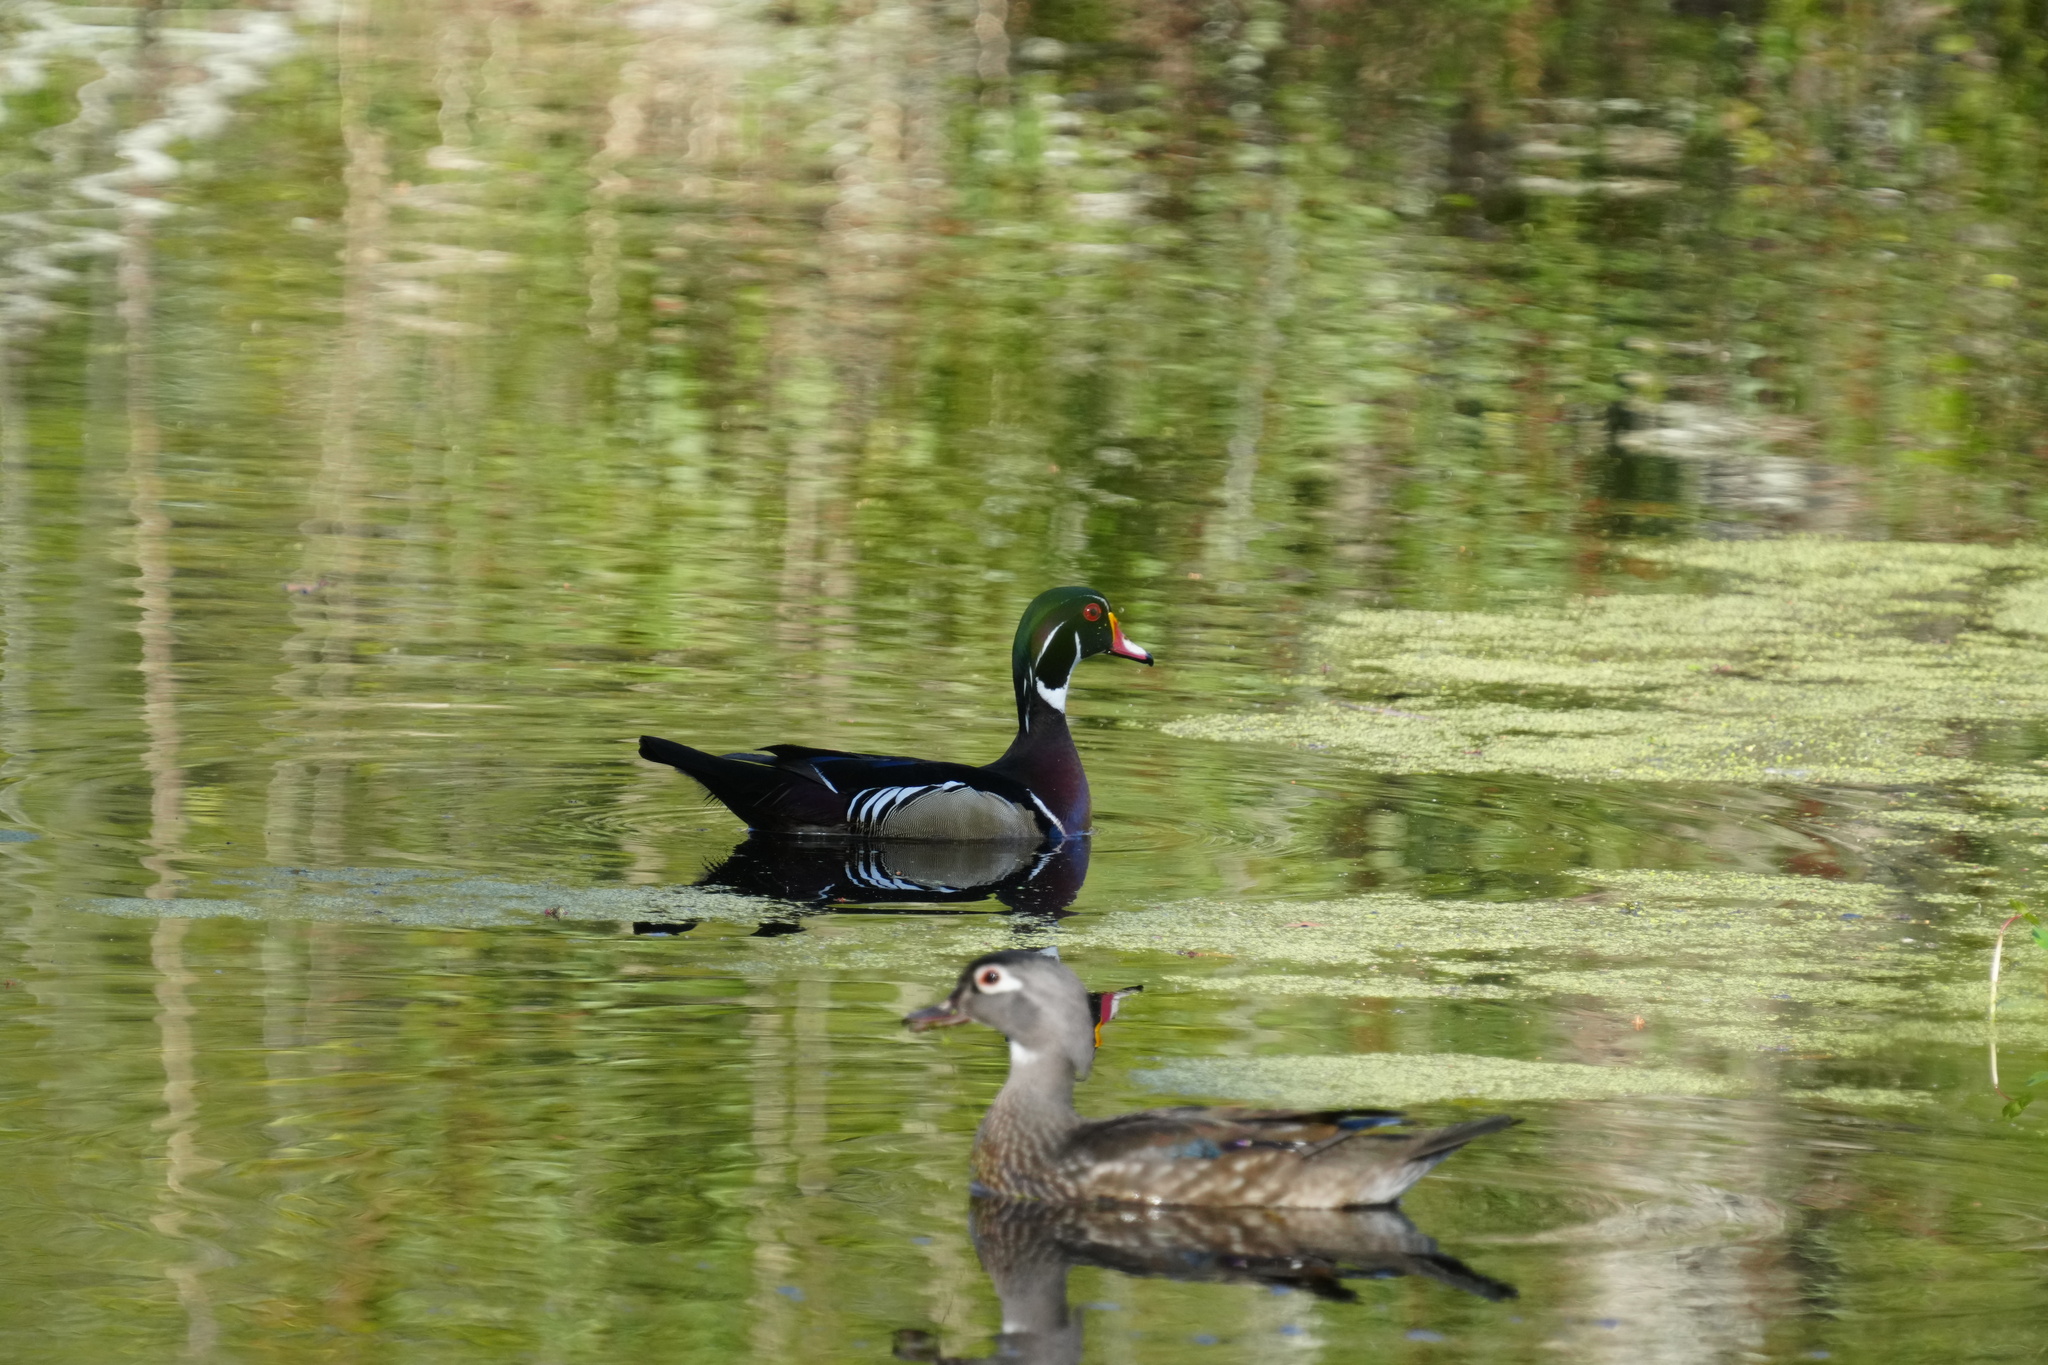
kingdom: Animalia
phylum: Chordata
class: Aves
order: Anseriformes
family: Anatidae
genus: Aix
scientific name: Aix sponsa
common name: Wood duck
